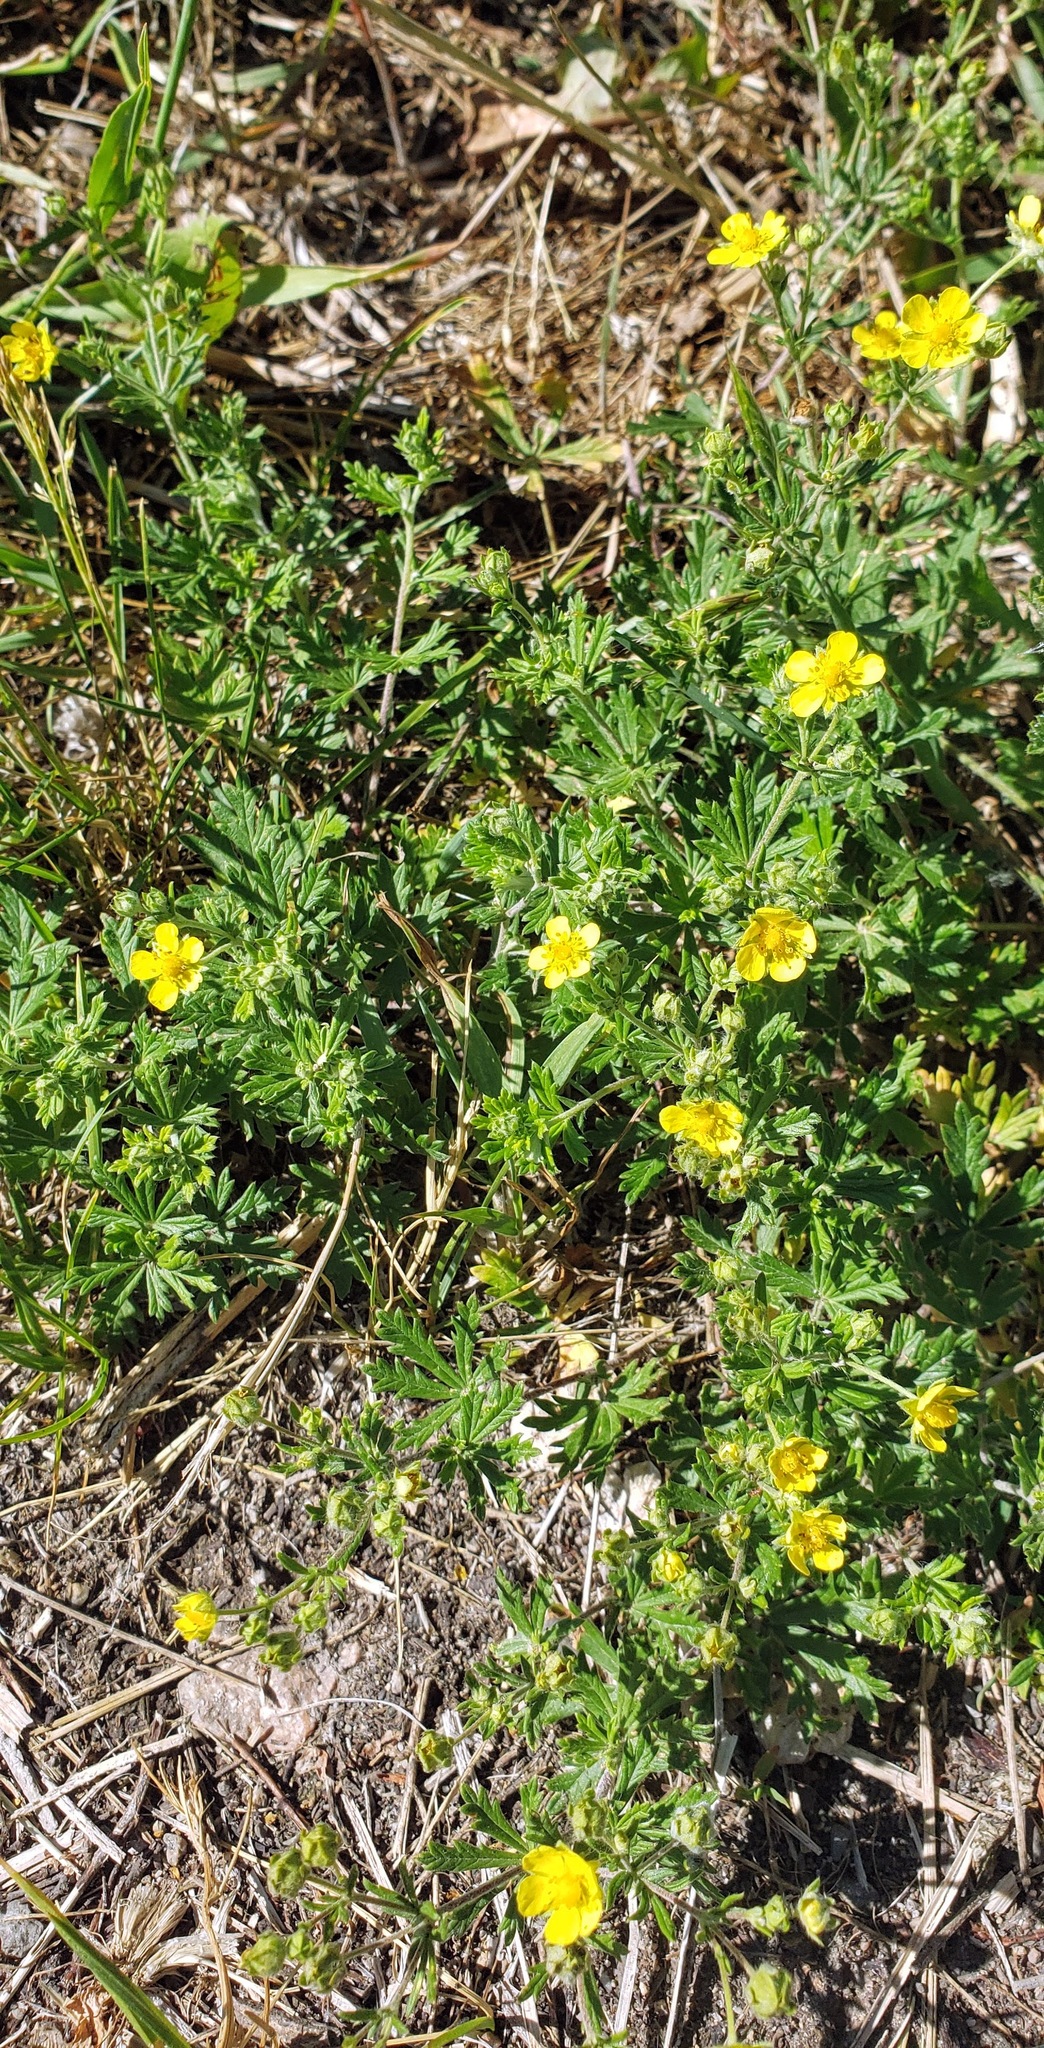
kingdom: Plantae
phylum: Tracheophyta
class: Magnoliopsida
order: Rosales
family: Rosaceae
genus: Potentilla
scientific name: Potentilla argentea
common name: Hoary cinquefoil
